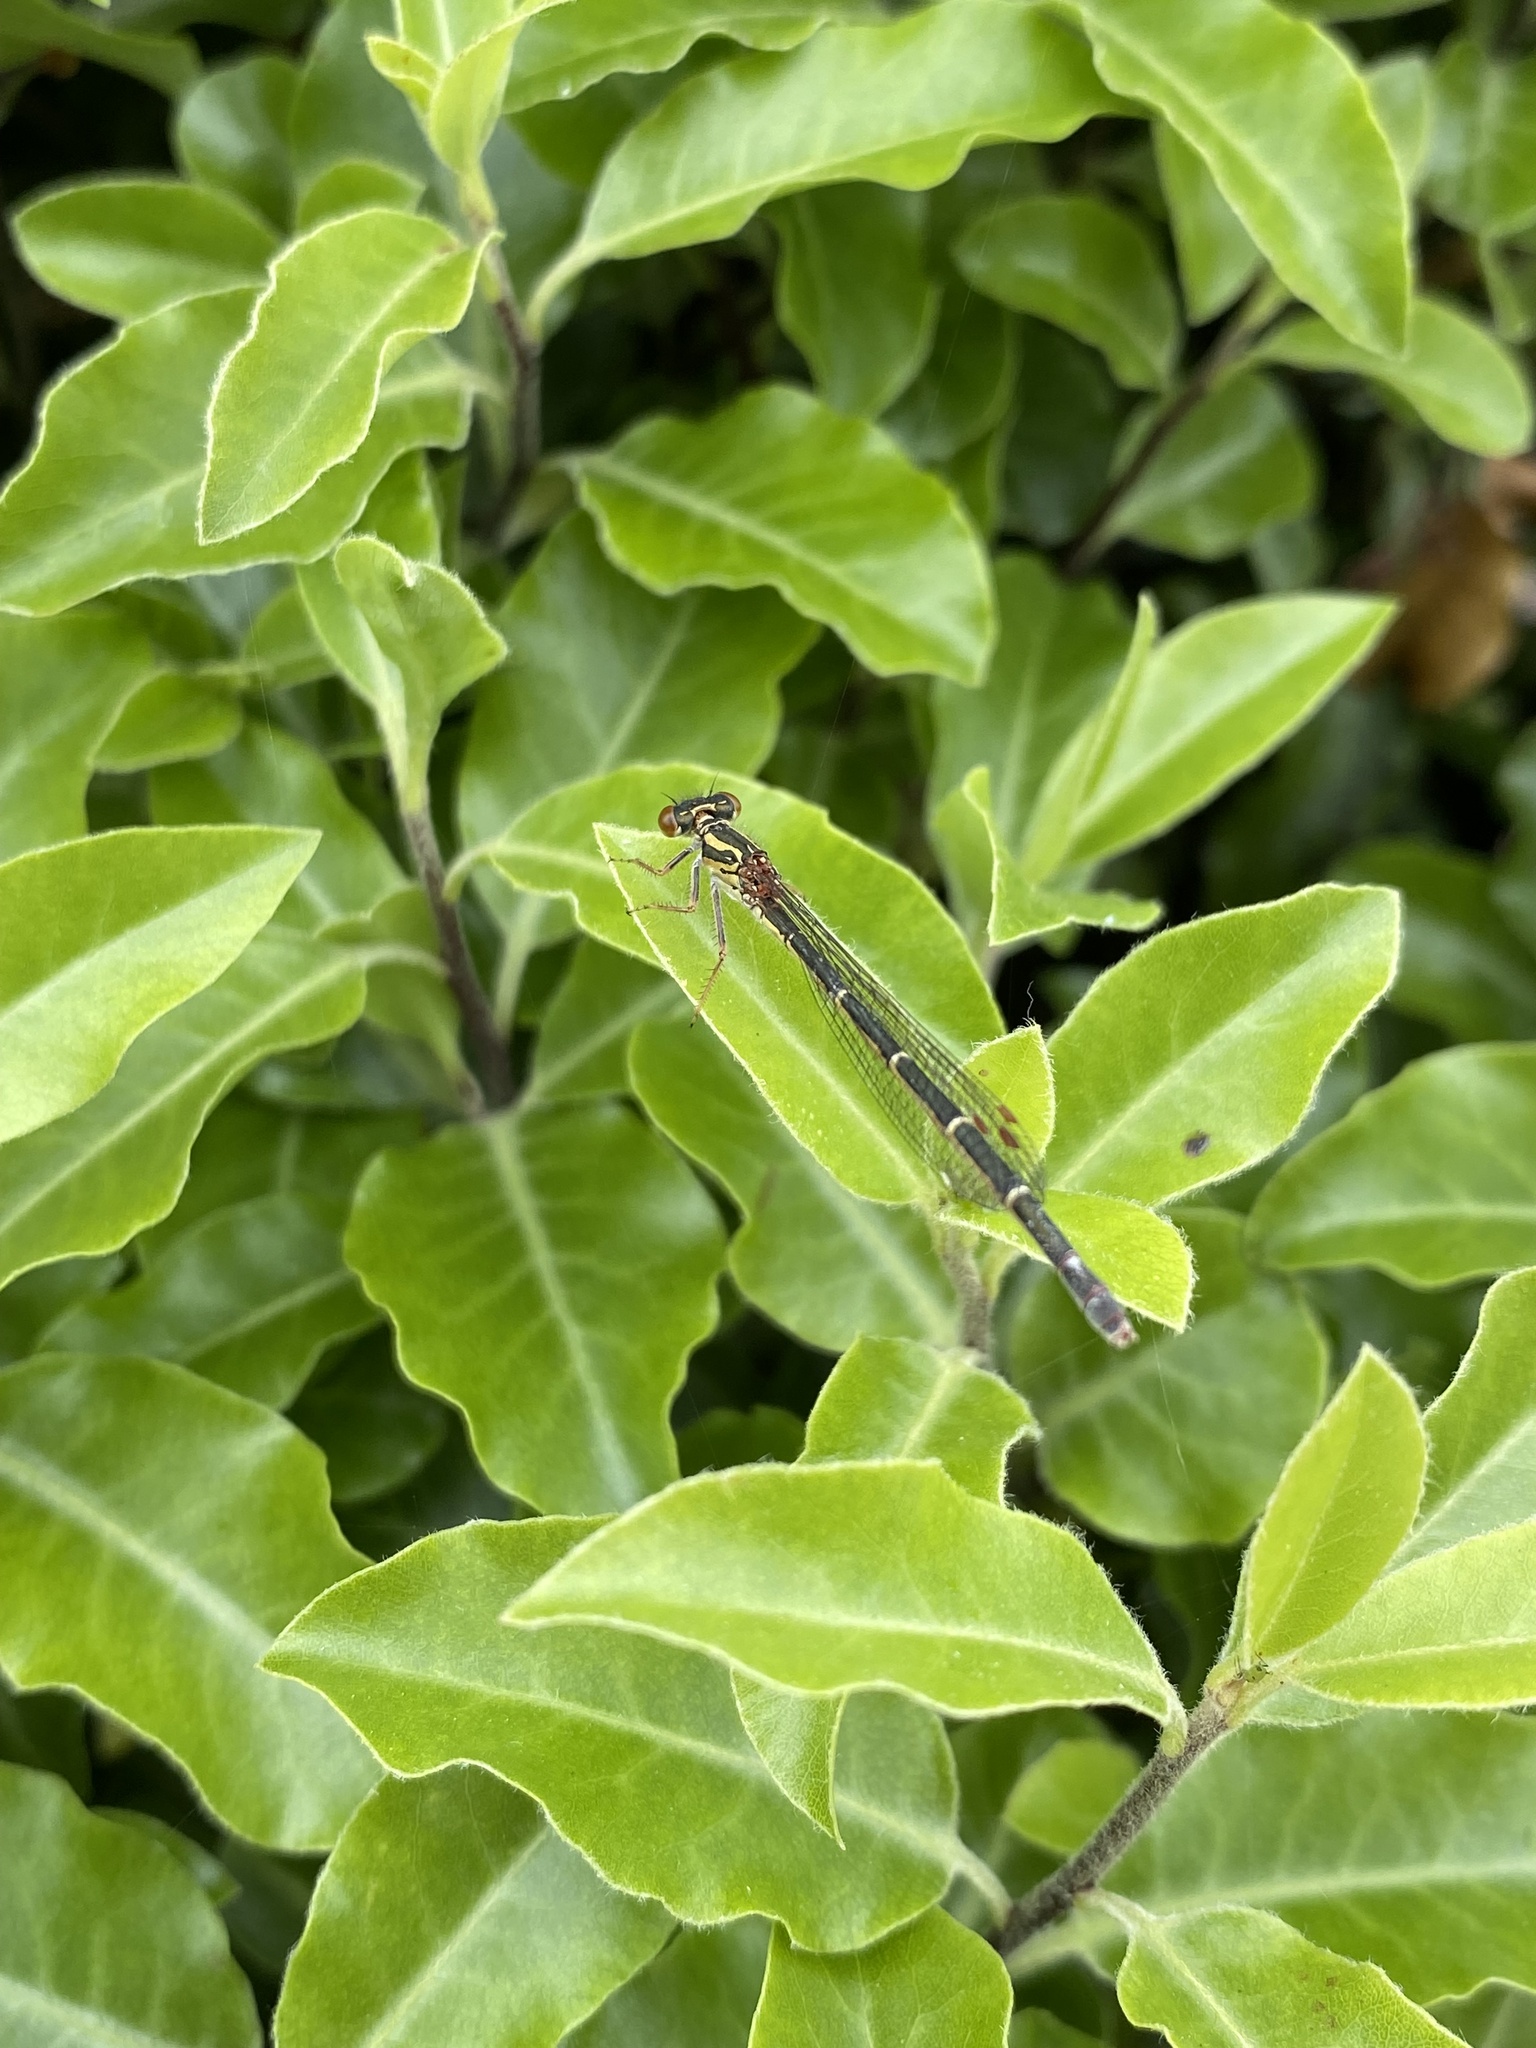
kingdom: Animalia
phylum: Arthropoda
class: Insecta
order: Odonata
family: Coenagrionidae
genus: Xanthocnemis
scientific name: Xanthocnemis zealandica
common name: Common redcoat damselfly
